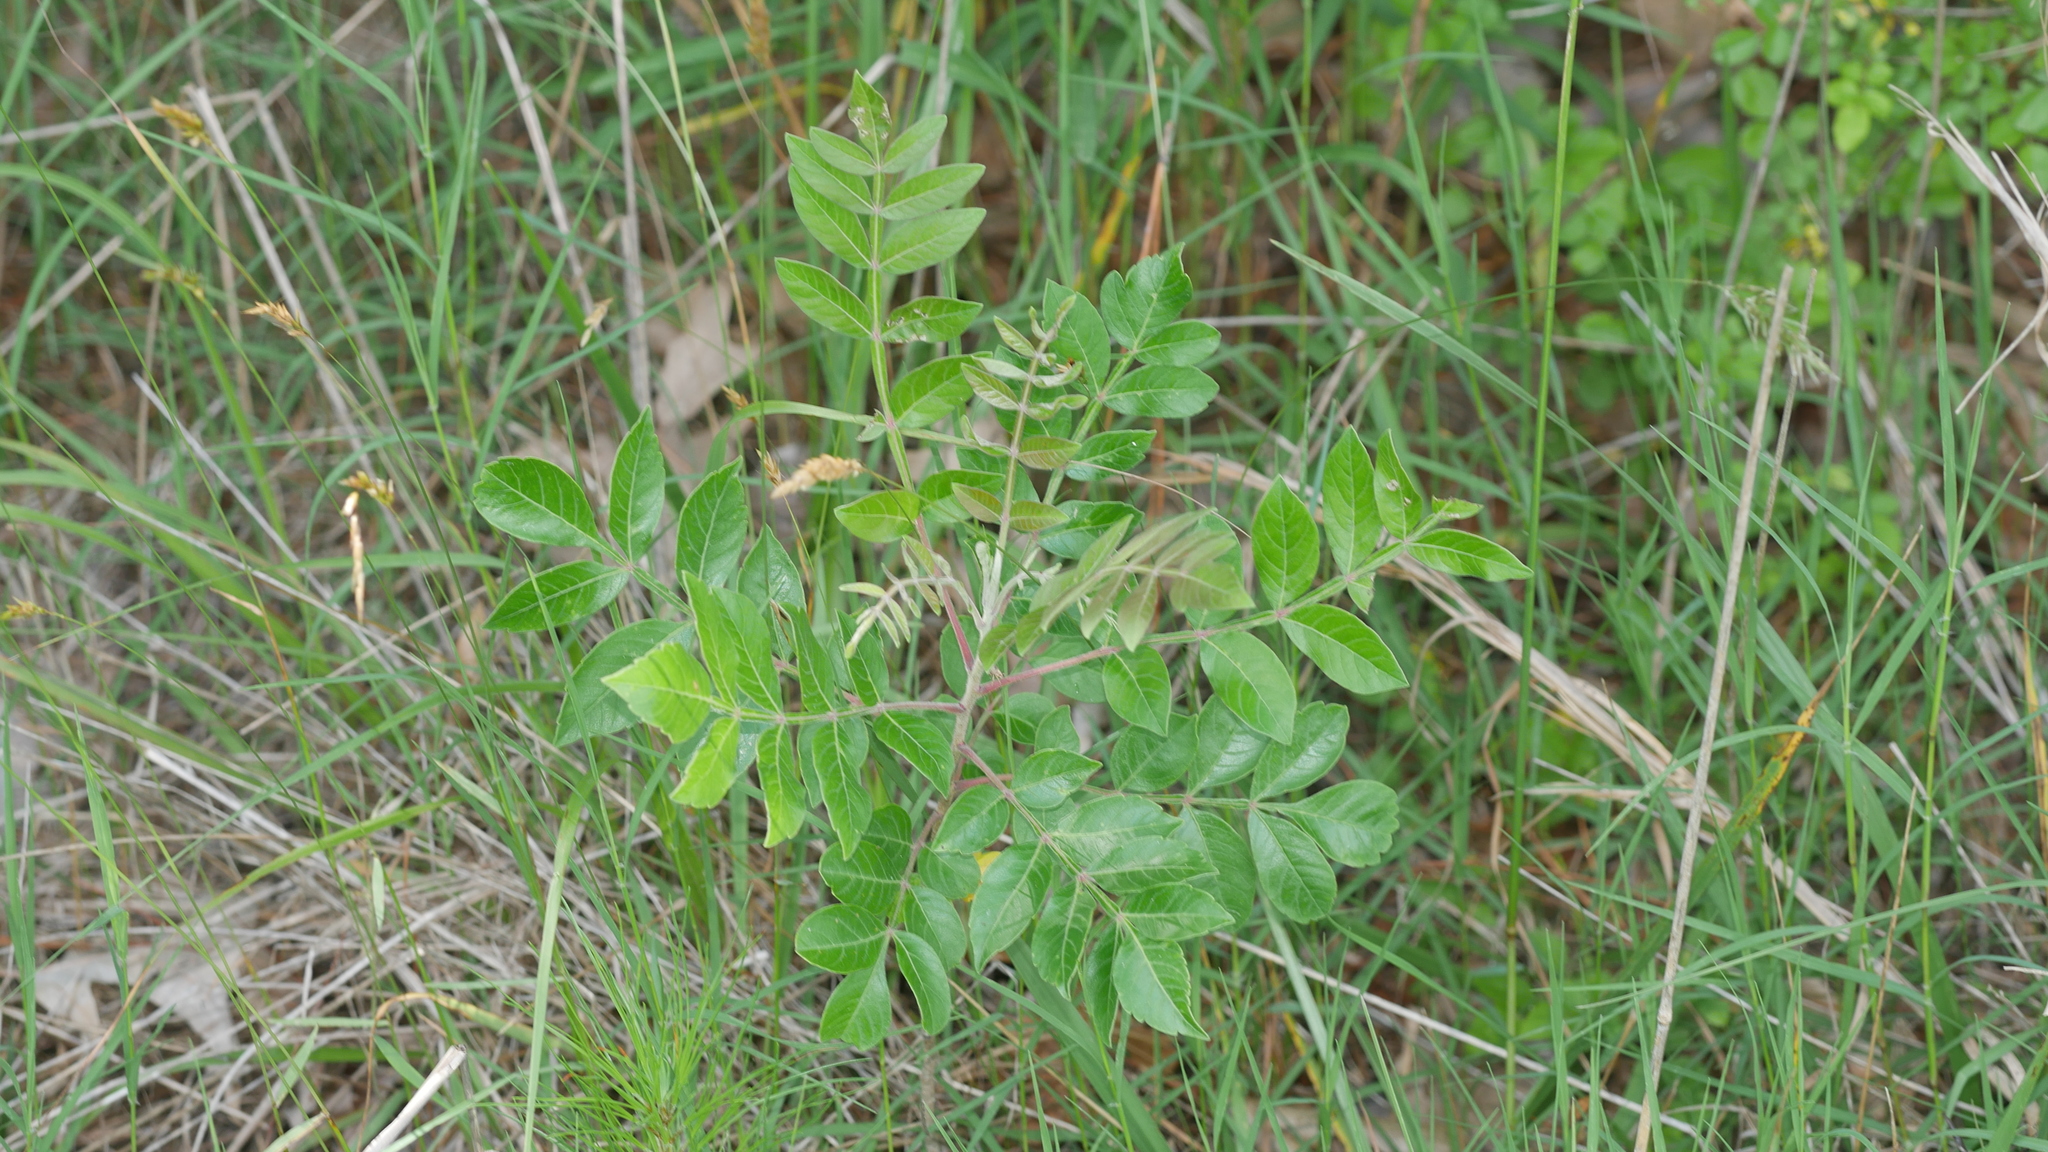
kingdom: Plantae
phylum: Tracheophyta
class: Magnoliopsida
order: Sapindales
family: Anacardiaceae
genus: Rhus
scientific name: Rhus copallina
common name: Shining sumac
